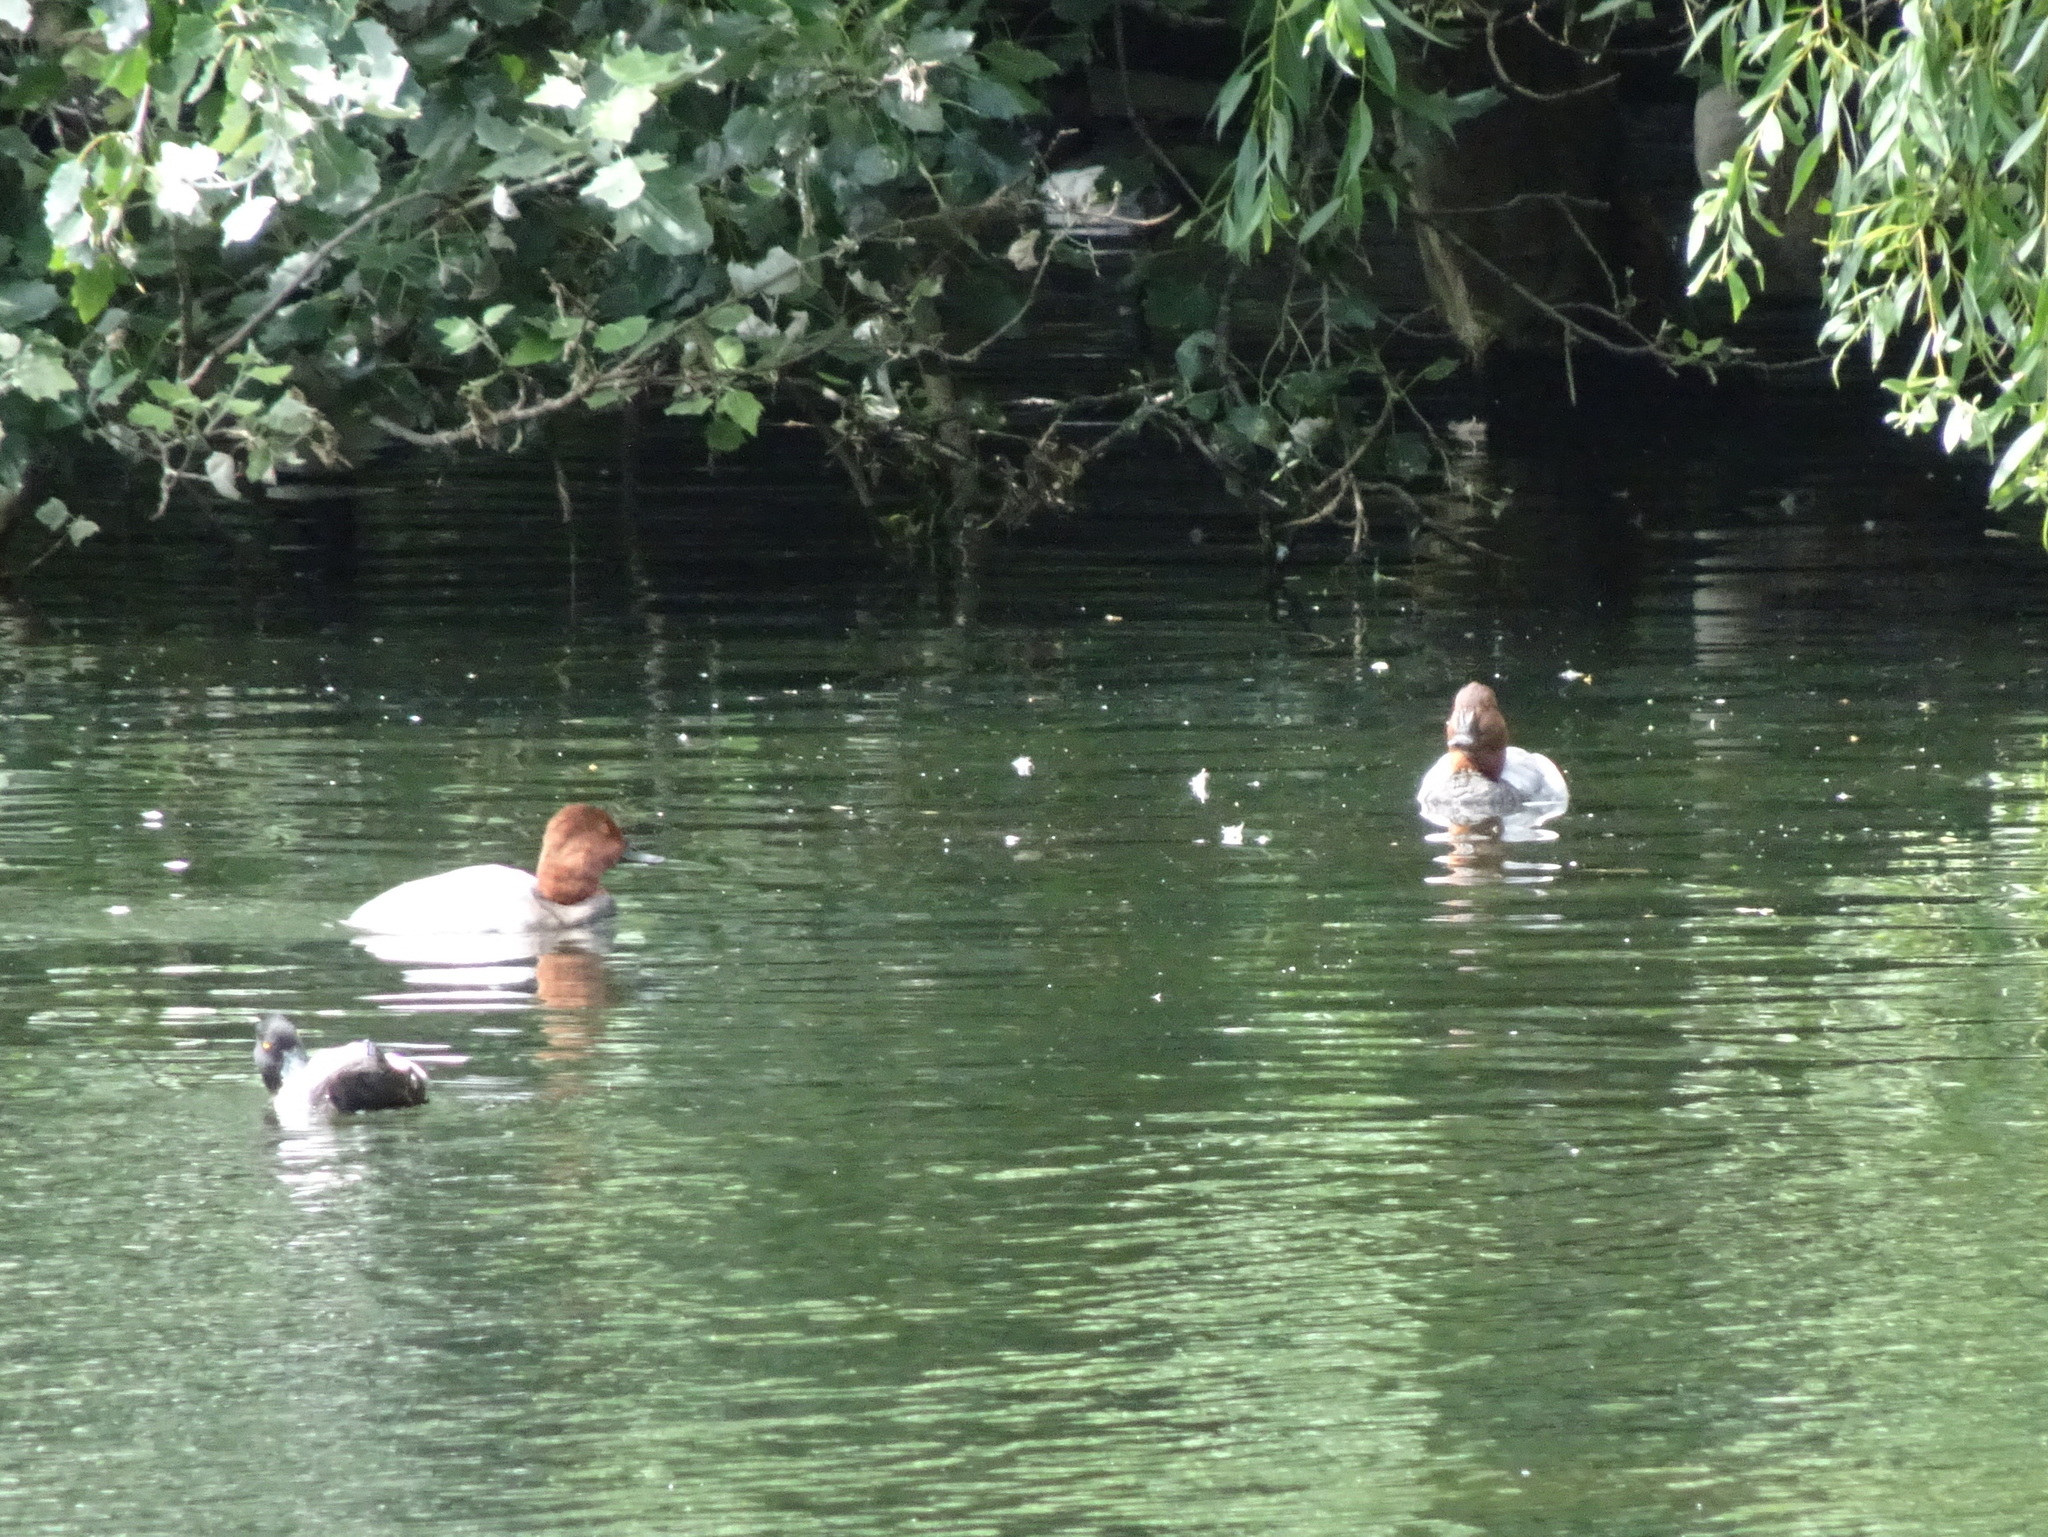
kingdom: Animalia
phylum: Chordata
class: Aves
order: Anseriformes
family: Anatidae
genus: Aythya
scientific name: Aythya ferina
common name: Common pochard
